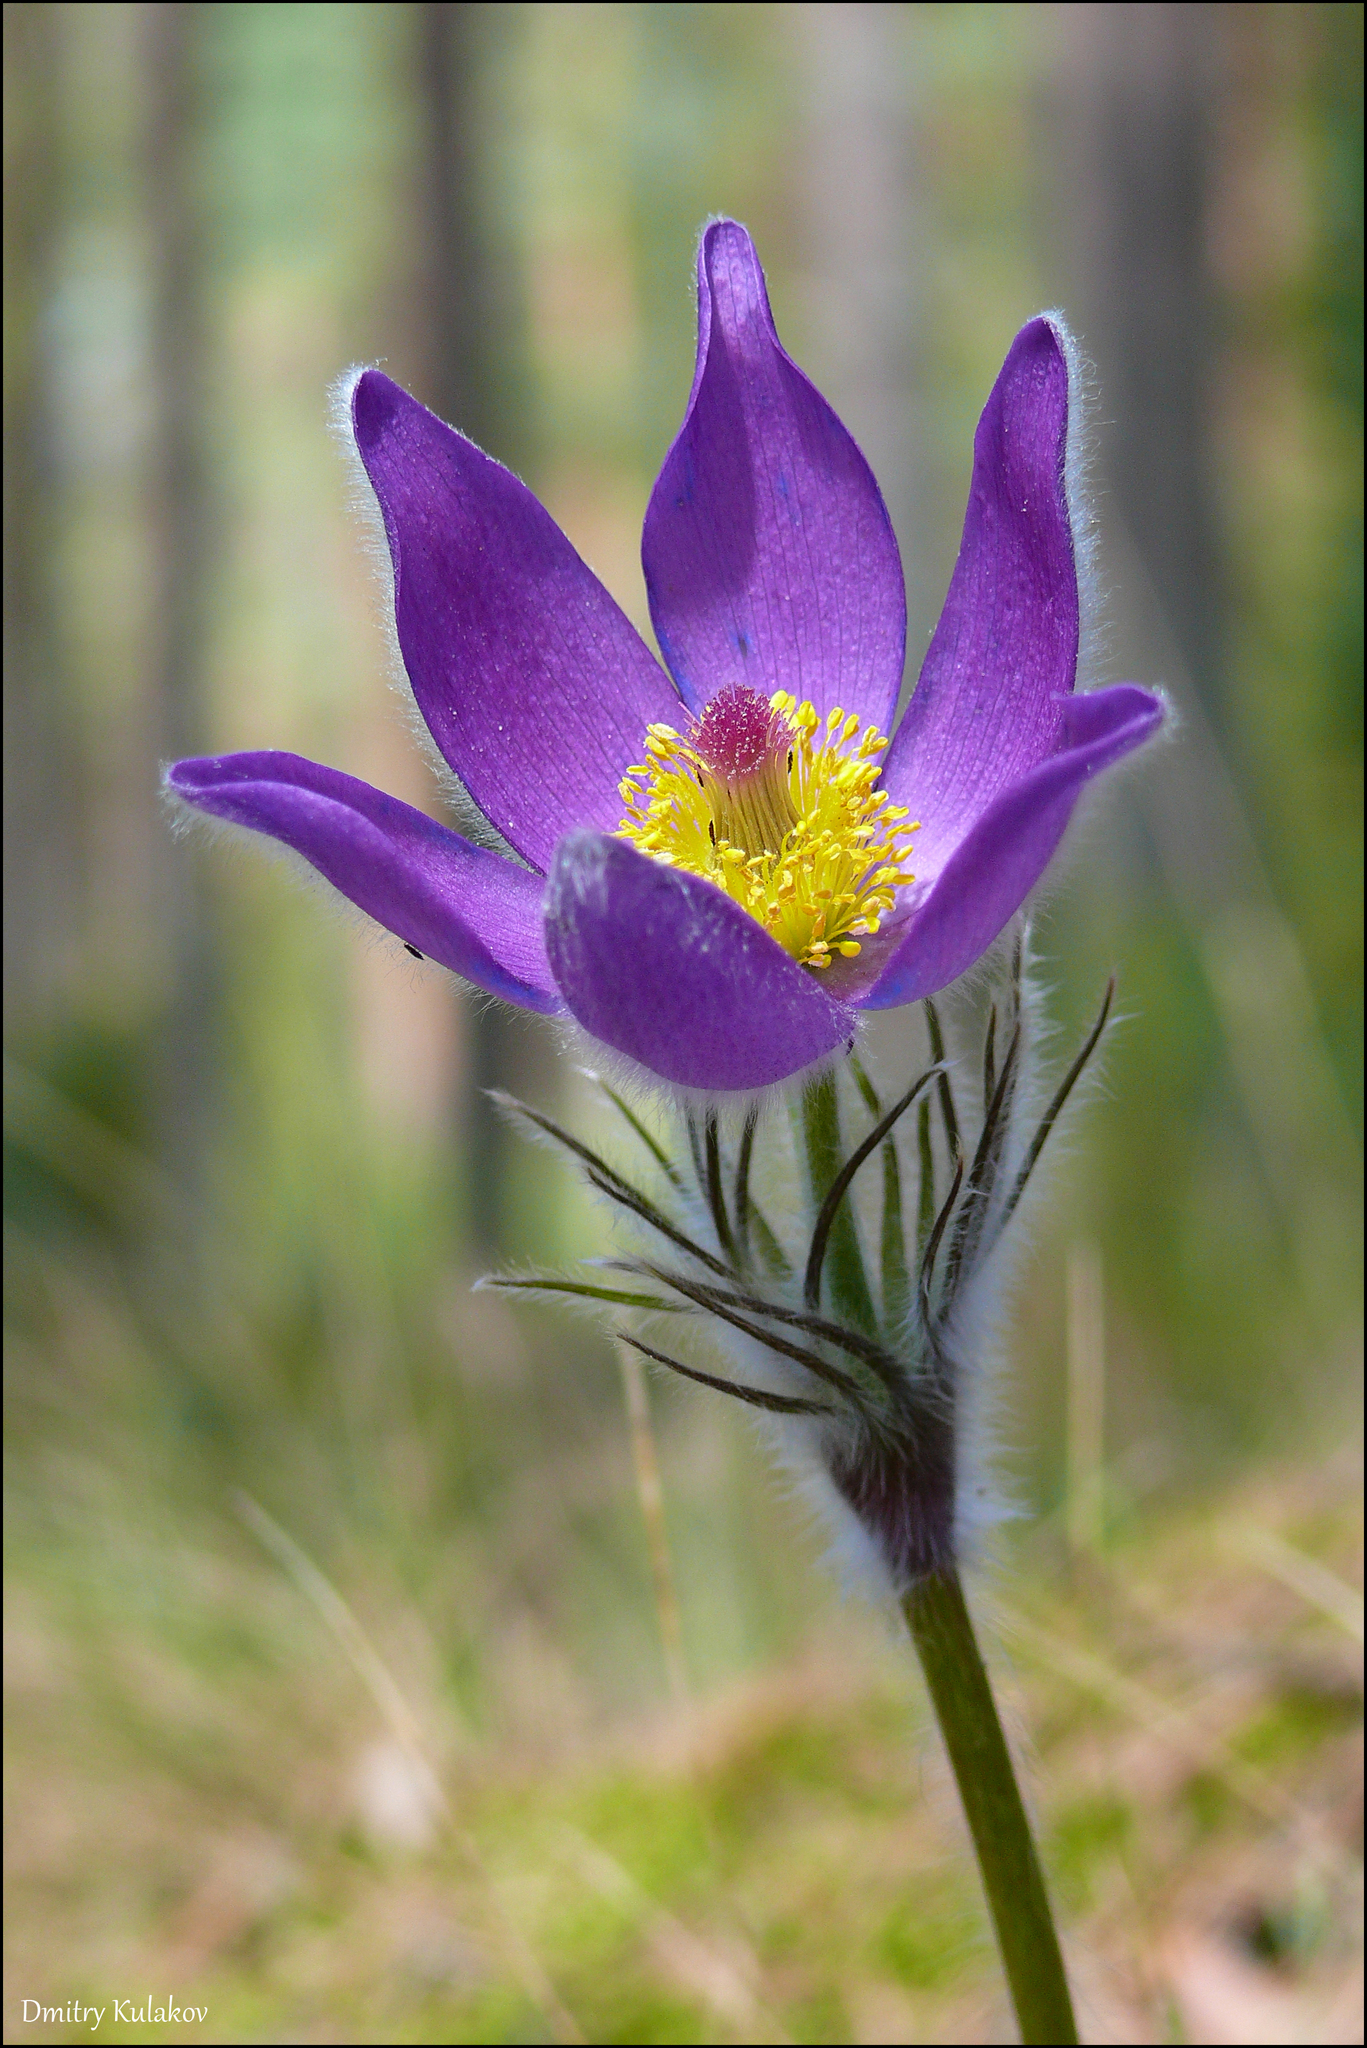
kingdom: Plantae
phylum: Tracheophyta
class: Magnoliopsida
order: Ranunculales
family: Ranunculaceae
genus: Pulsatilla
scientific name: Pulsatilla patens
